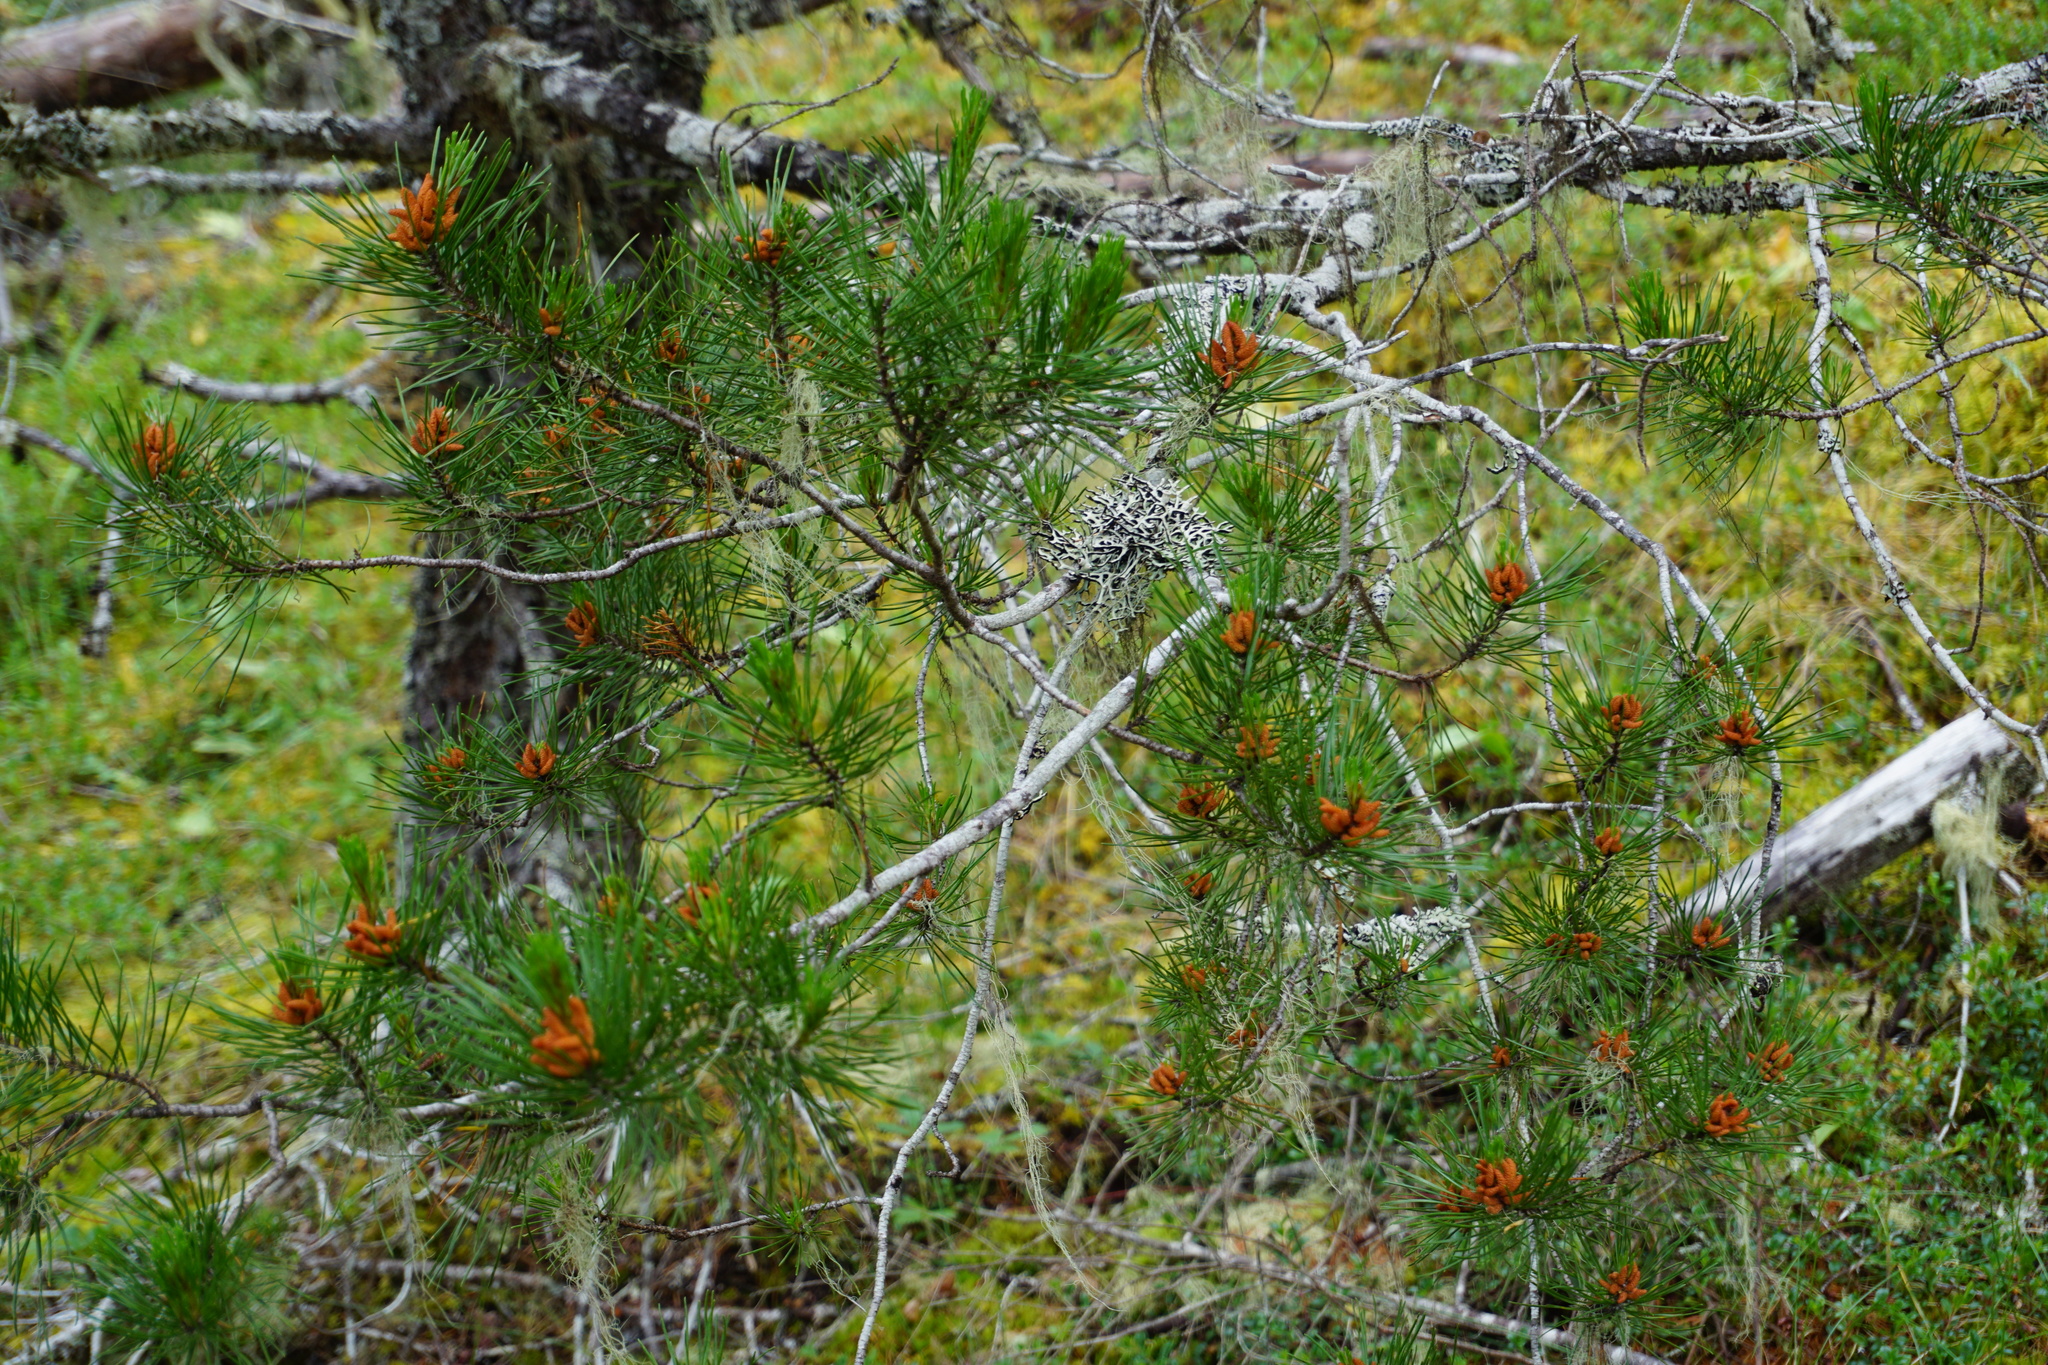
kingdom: Plantae
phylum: Tracheophyta
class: Pinopsida
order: Pinales
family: Pinaceae
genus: Pinus
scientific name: Pinus contorta
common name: Lodgepole pine
